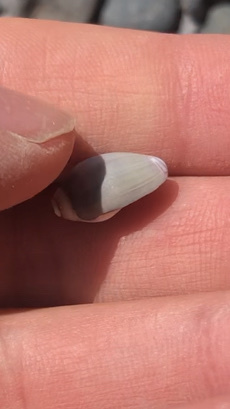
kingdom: Animalia
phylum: Mollusca
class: Gastropoda
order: Neogastropoda
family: Olividae
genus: Callianax
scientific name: Callianax biplicata
